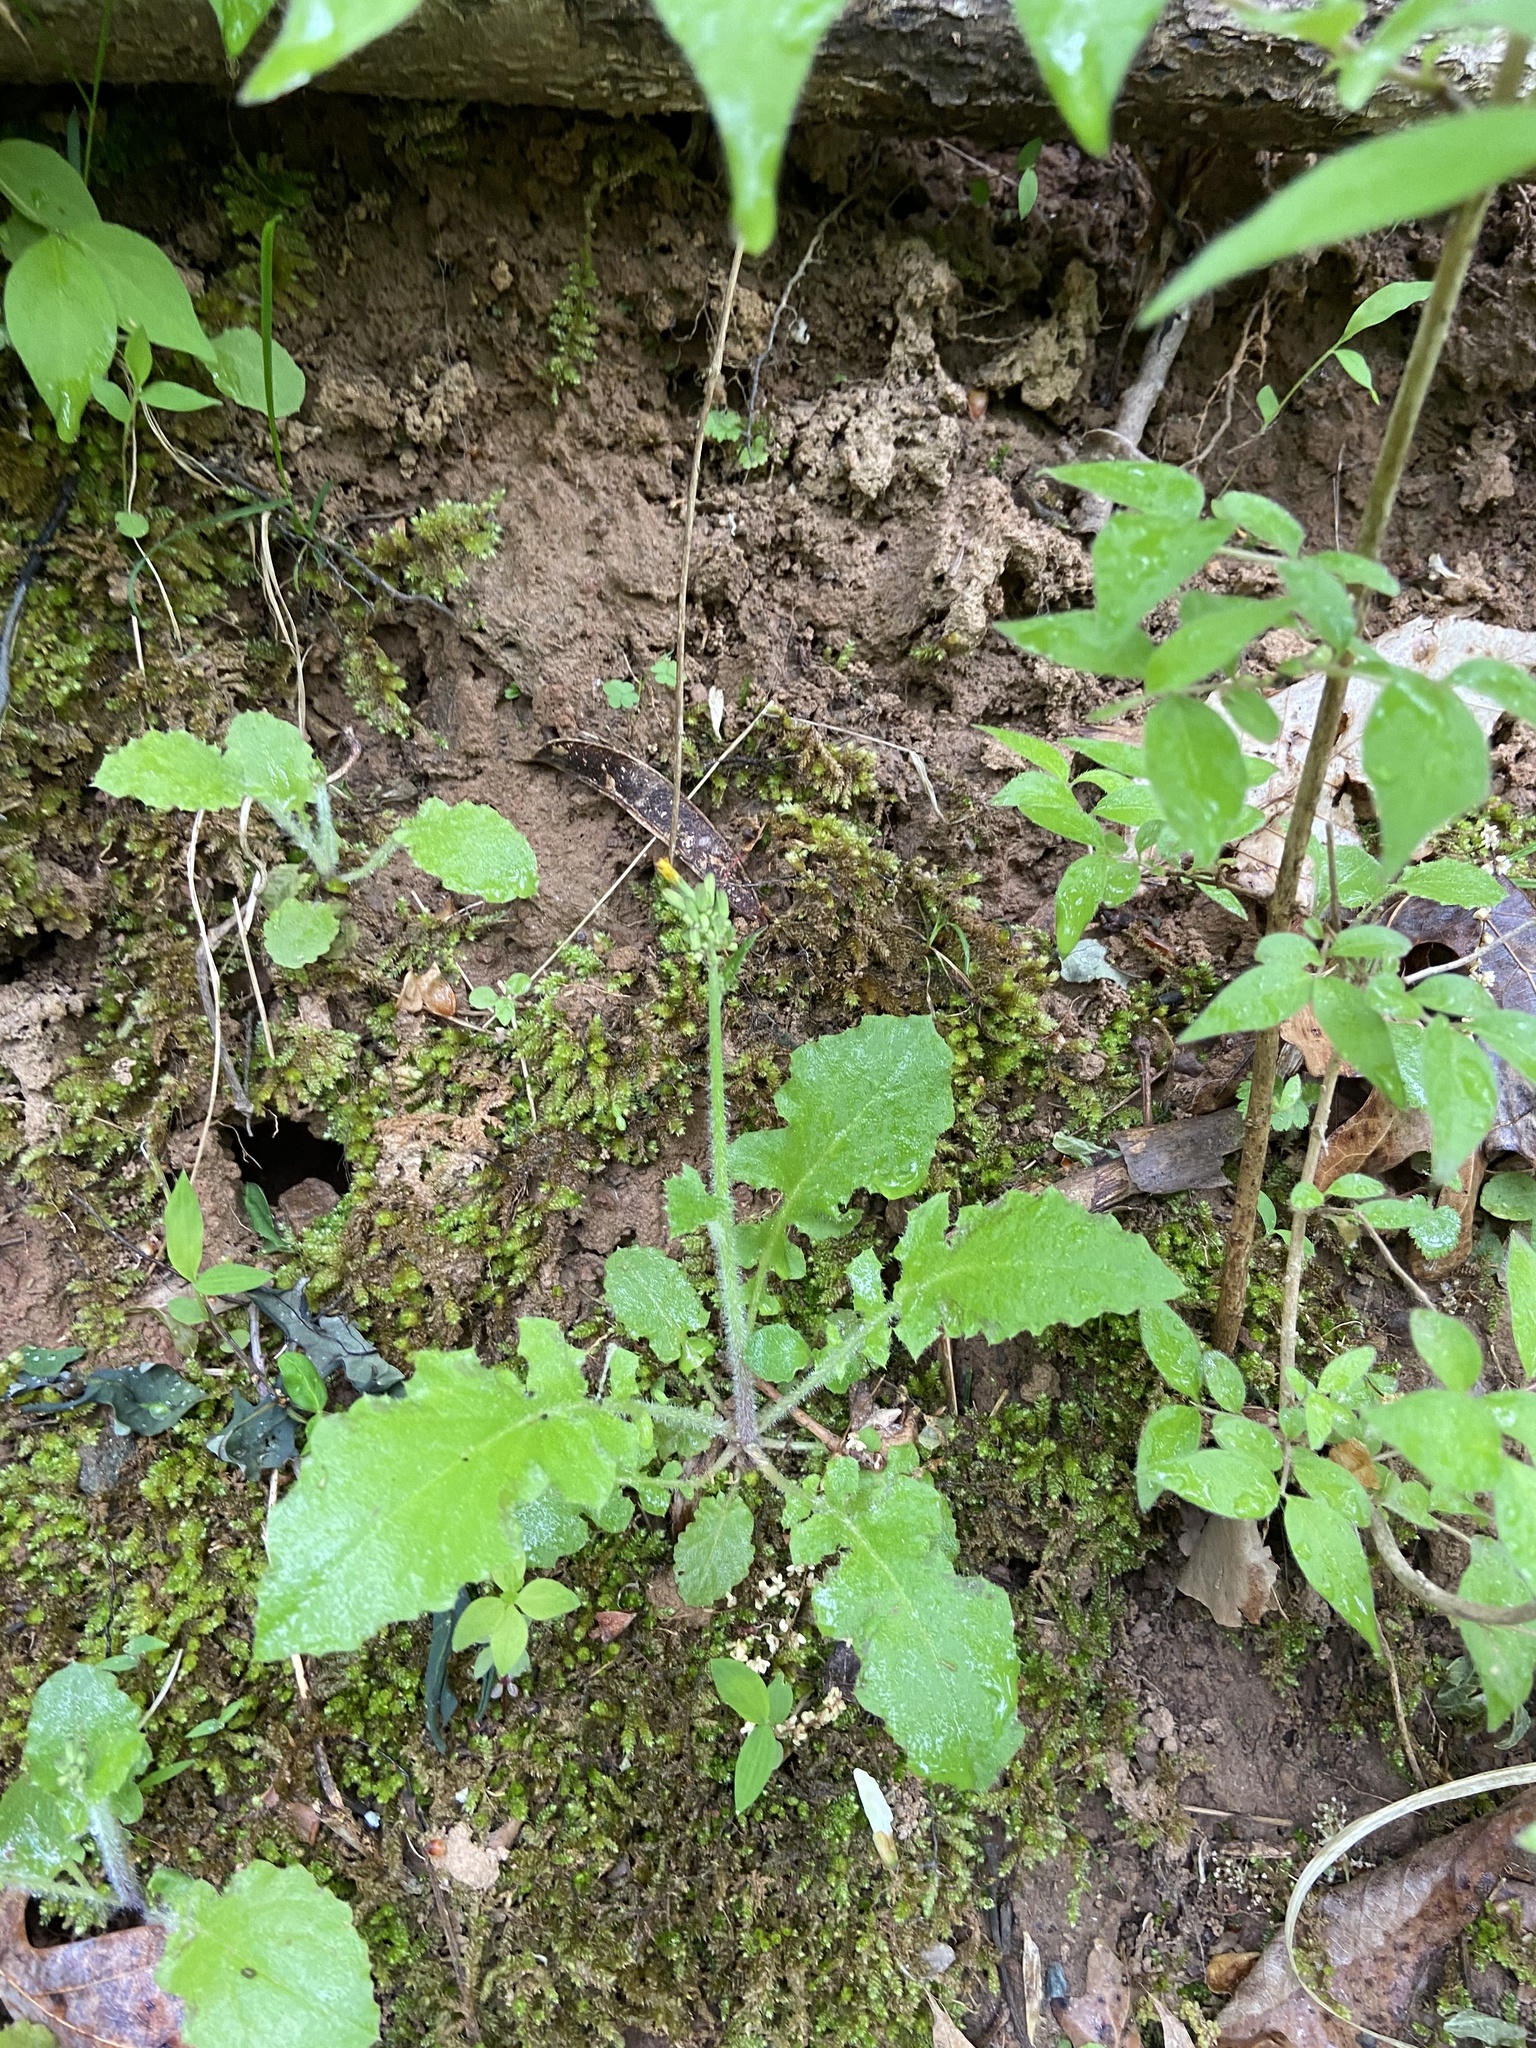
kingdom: Plantae
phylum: Tracheophyta
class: Magnoliopsida
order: Asterales
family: Asteraceae
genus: Youngia
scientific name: Youngia japonica
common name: Oriental false hawksbeard
